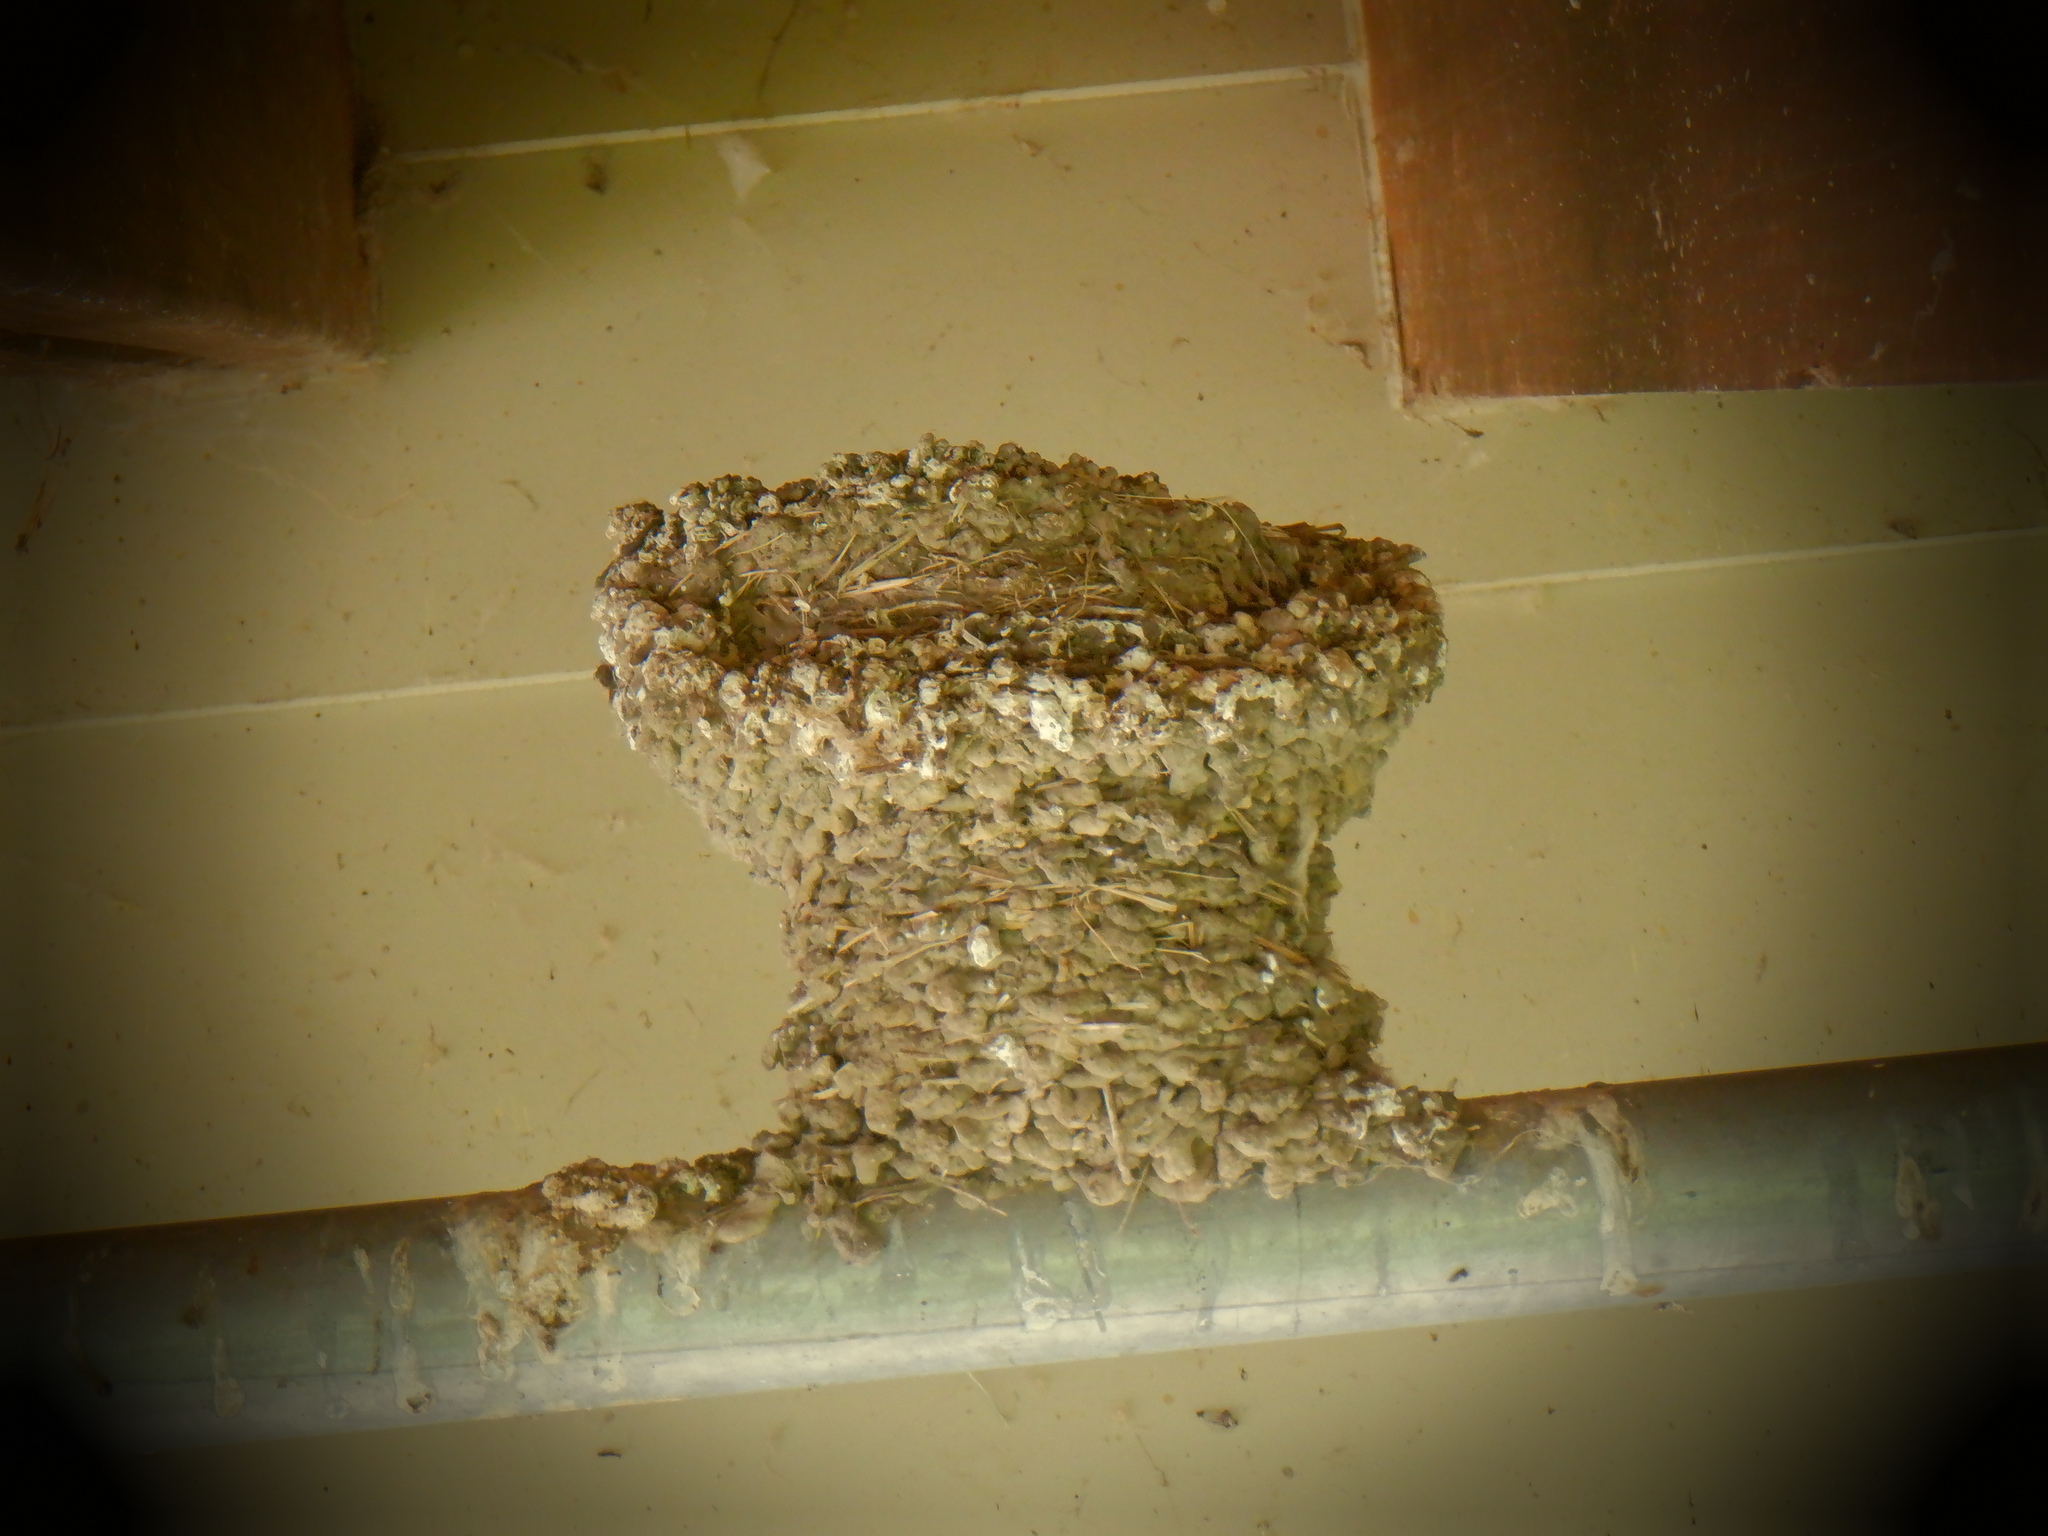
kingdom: Animalia
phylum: Chordata
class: Aves
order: Passeriformes
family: Hirundinidae
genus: Hirundo
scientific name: Hirundo rustica
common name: Barn swallow
